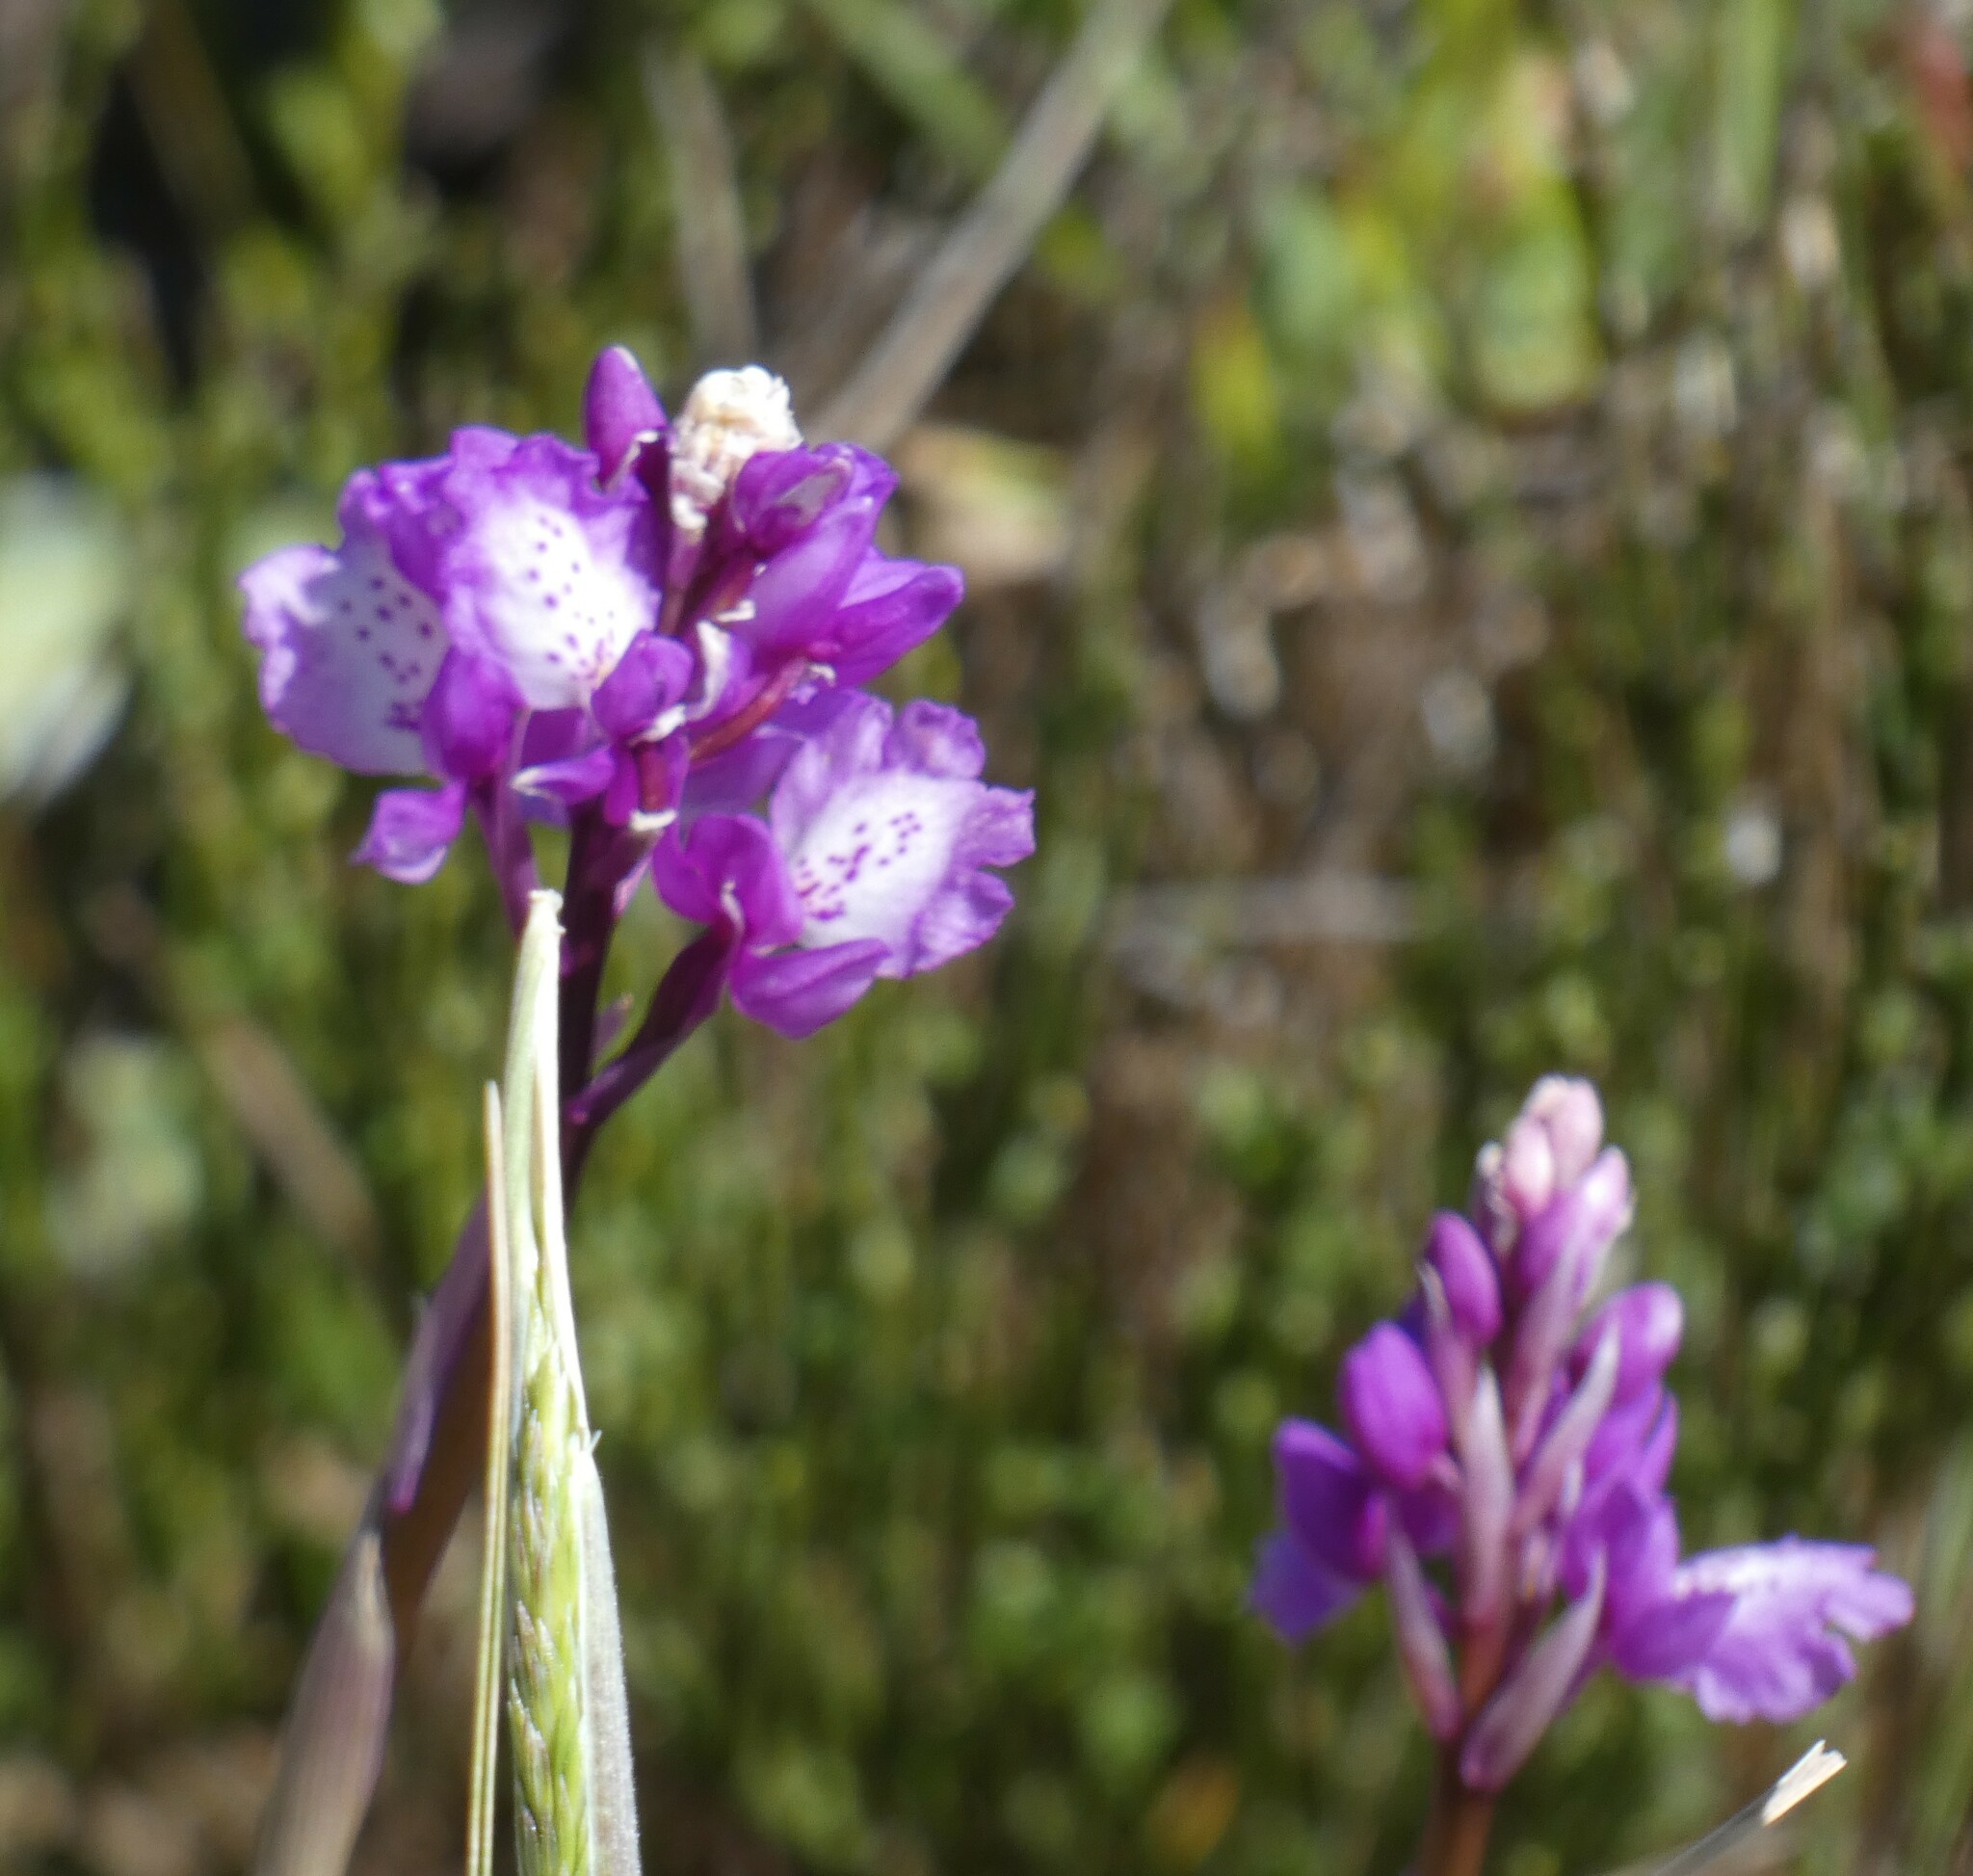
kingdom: Plantae
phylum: Tracheophyta
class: Liliopsida
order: Asparagales
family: Orchidaceae
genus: Orchis
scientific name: Orchis mascula
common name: Early-purple orchid
